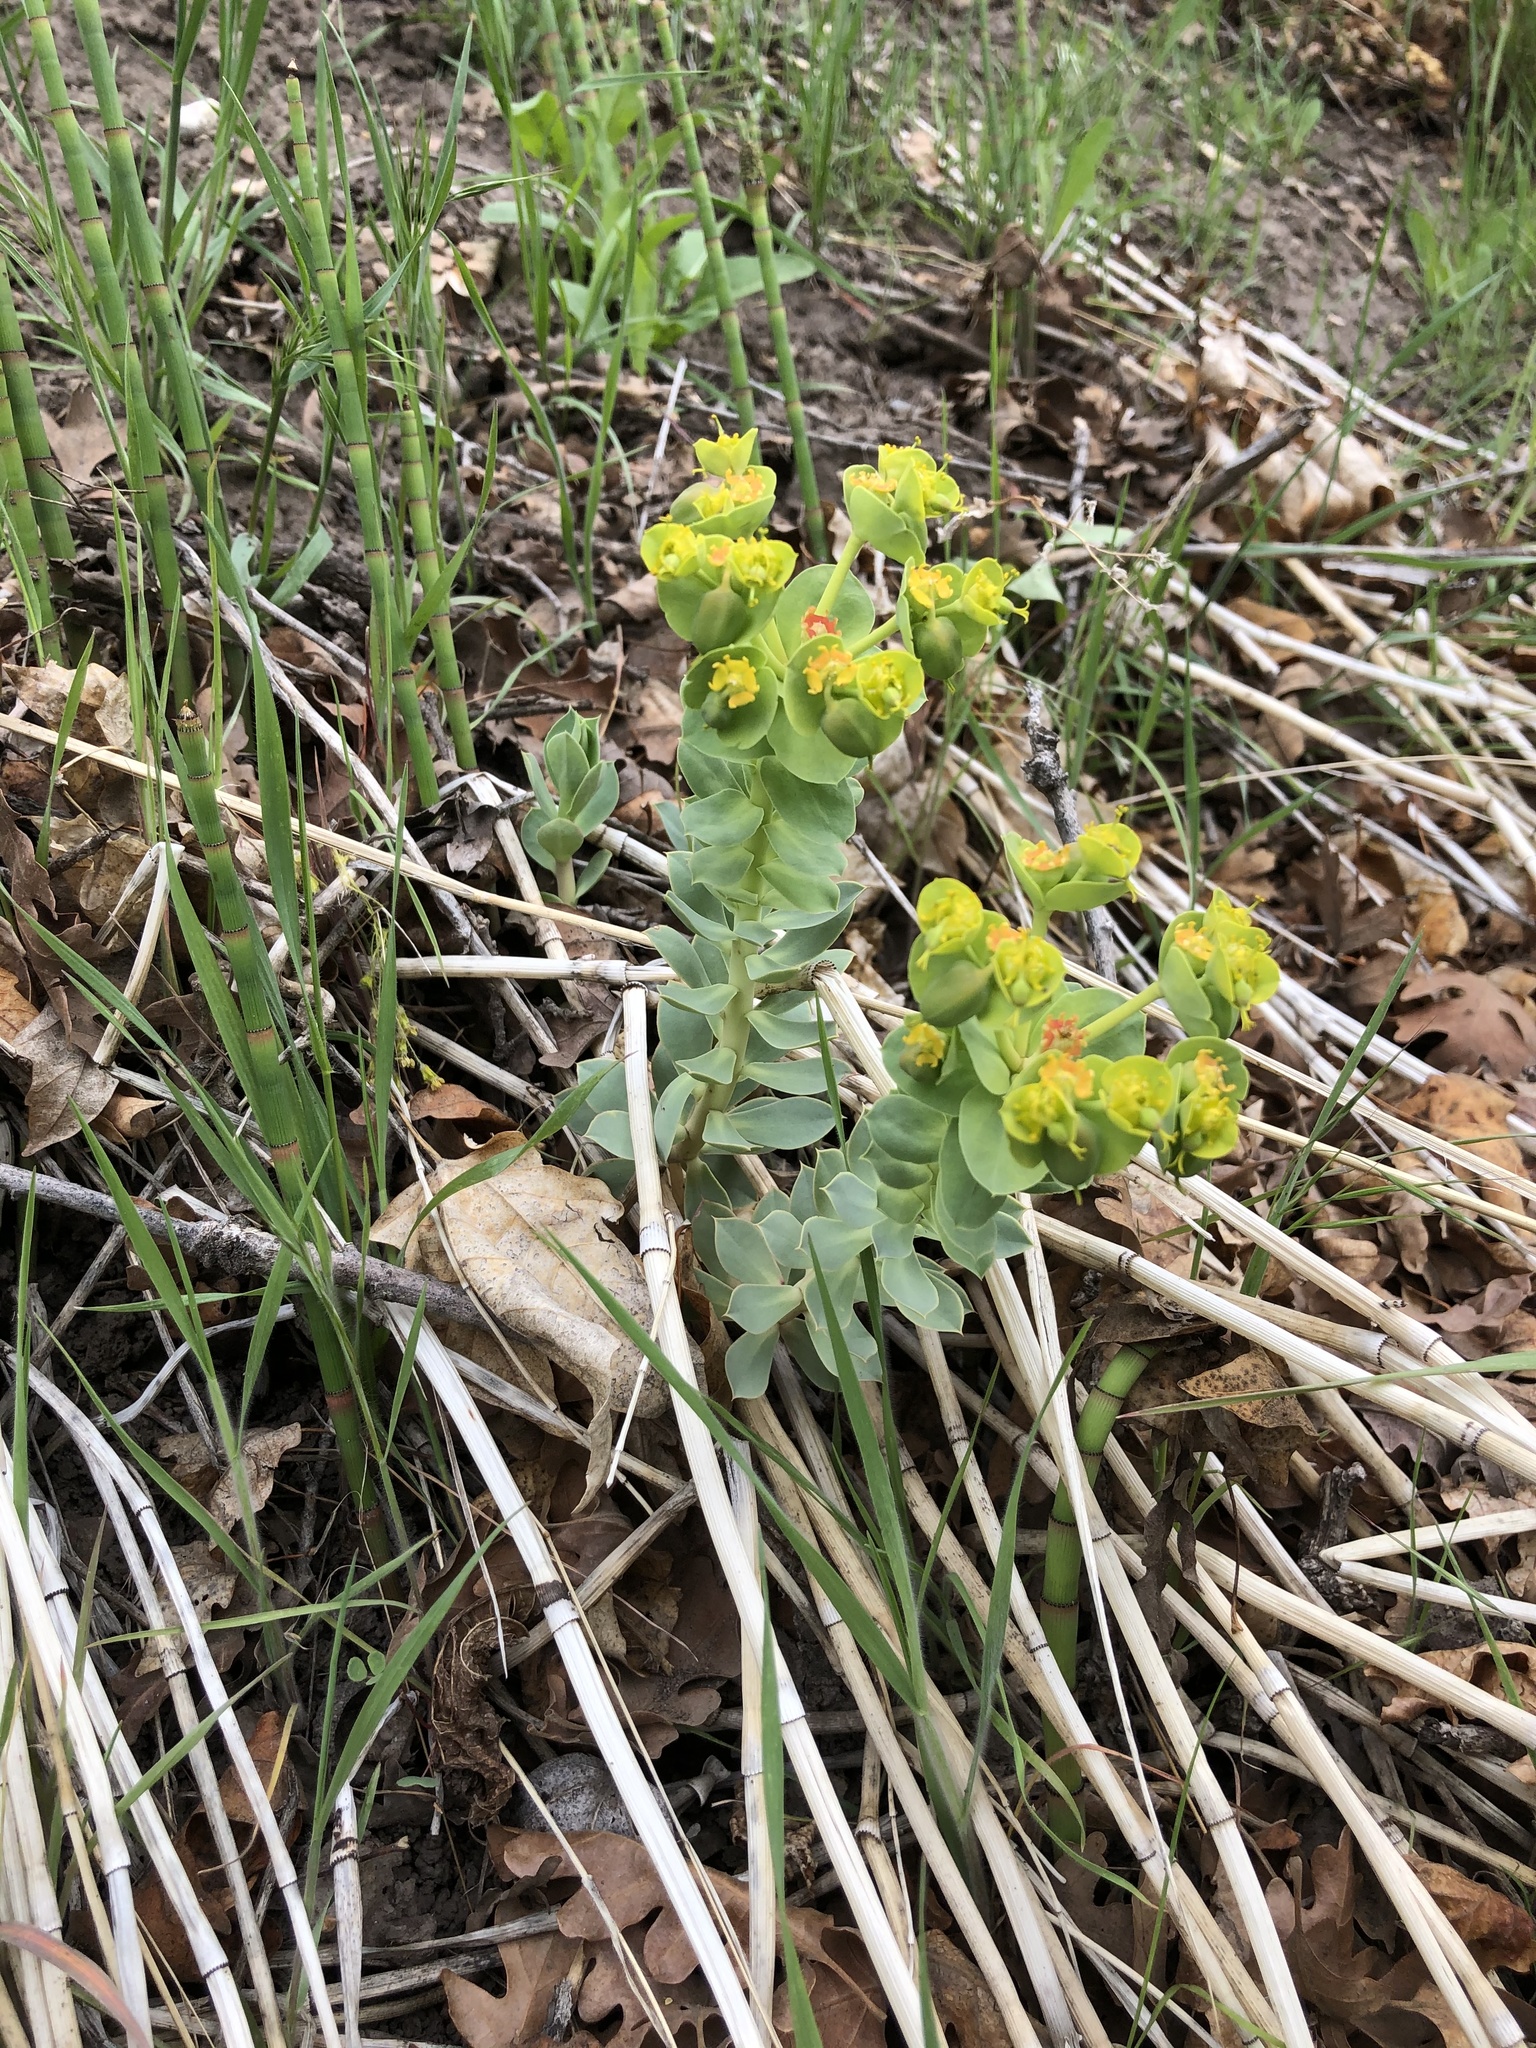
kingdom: Plantae
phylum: Tracheophyta
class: Magnoliopsida
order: Malpighiales
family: Euphorbiaceae
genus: Euphorbia
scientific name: Euphorbia myrsinites
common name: Myrtle spurge
